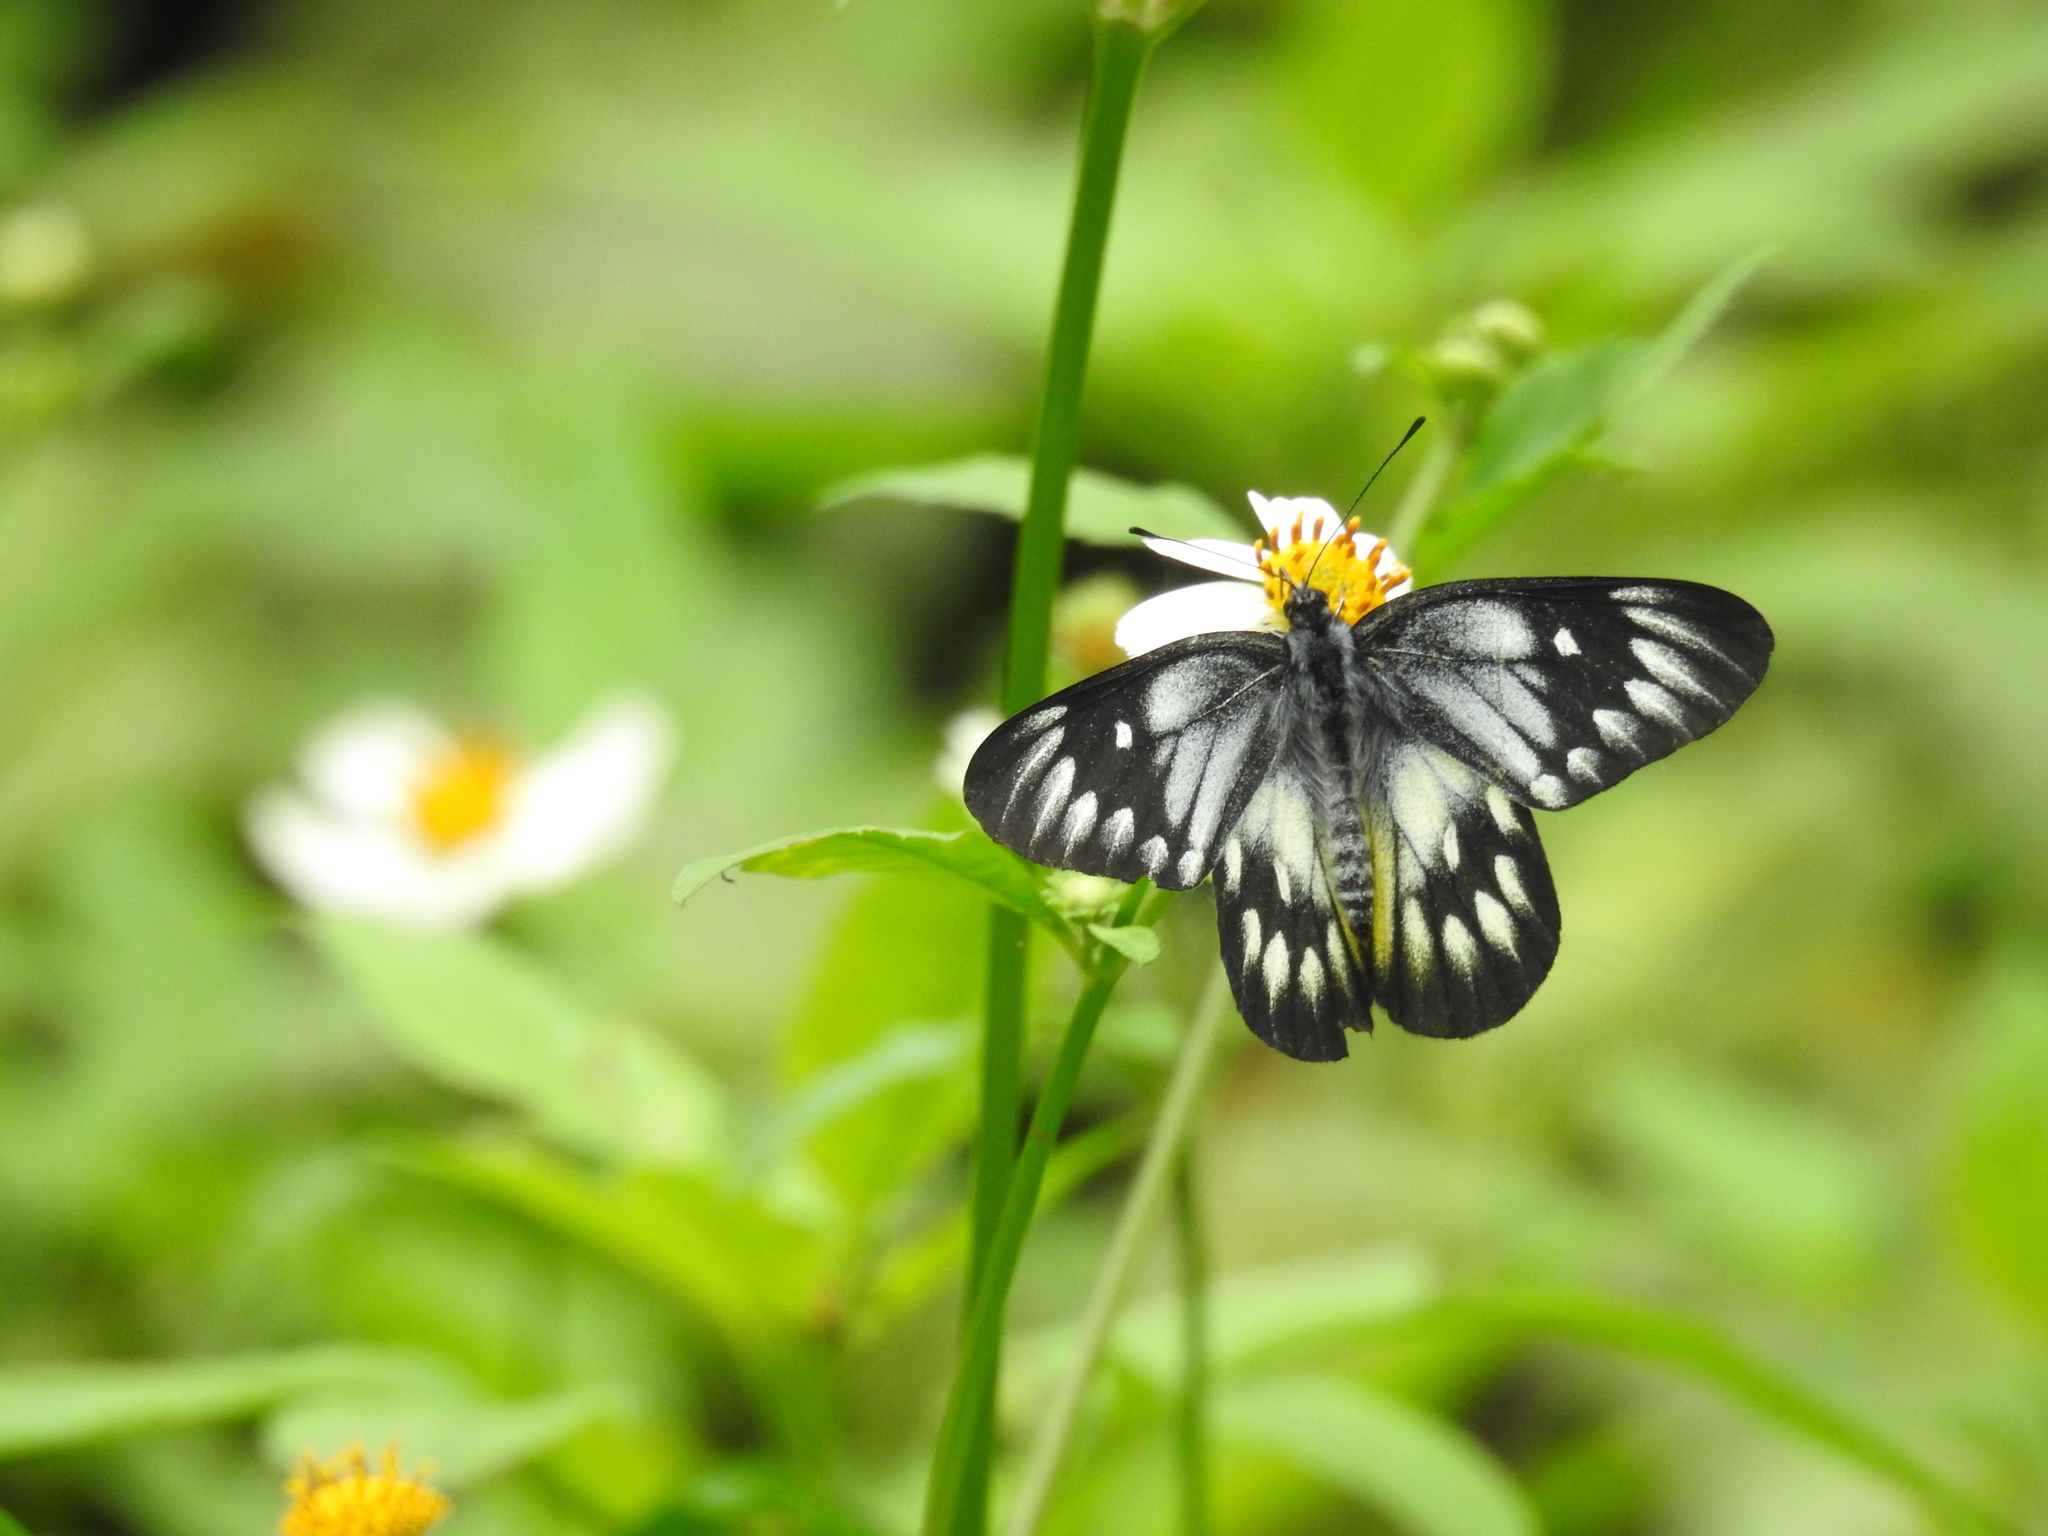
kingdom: Animalia
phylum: Arthropoda
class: Insecta
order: Lepidoptera
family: Pieridae
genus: Delias
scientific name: Delias pasithoe
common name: Red-base jezebel
